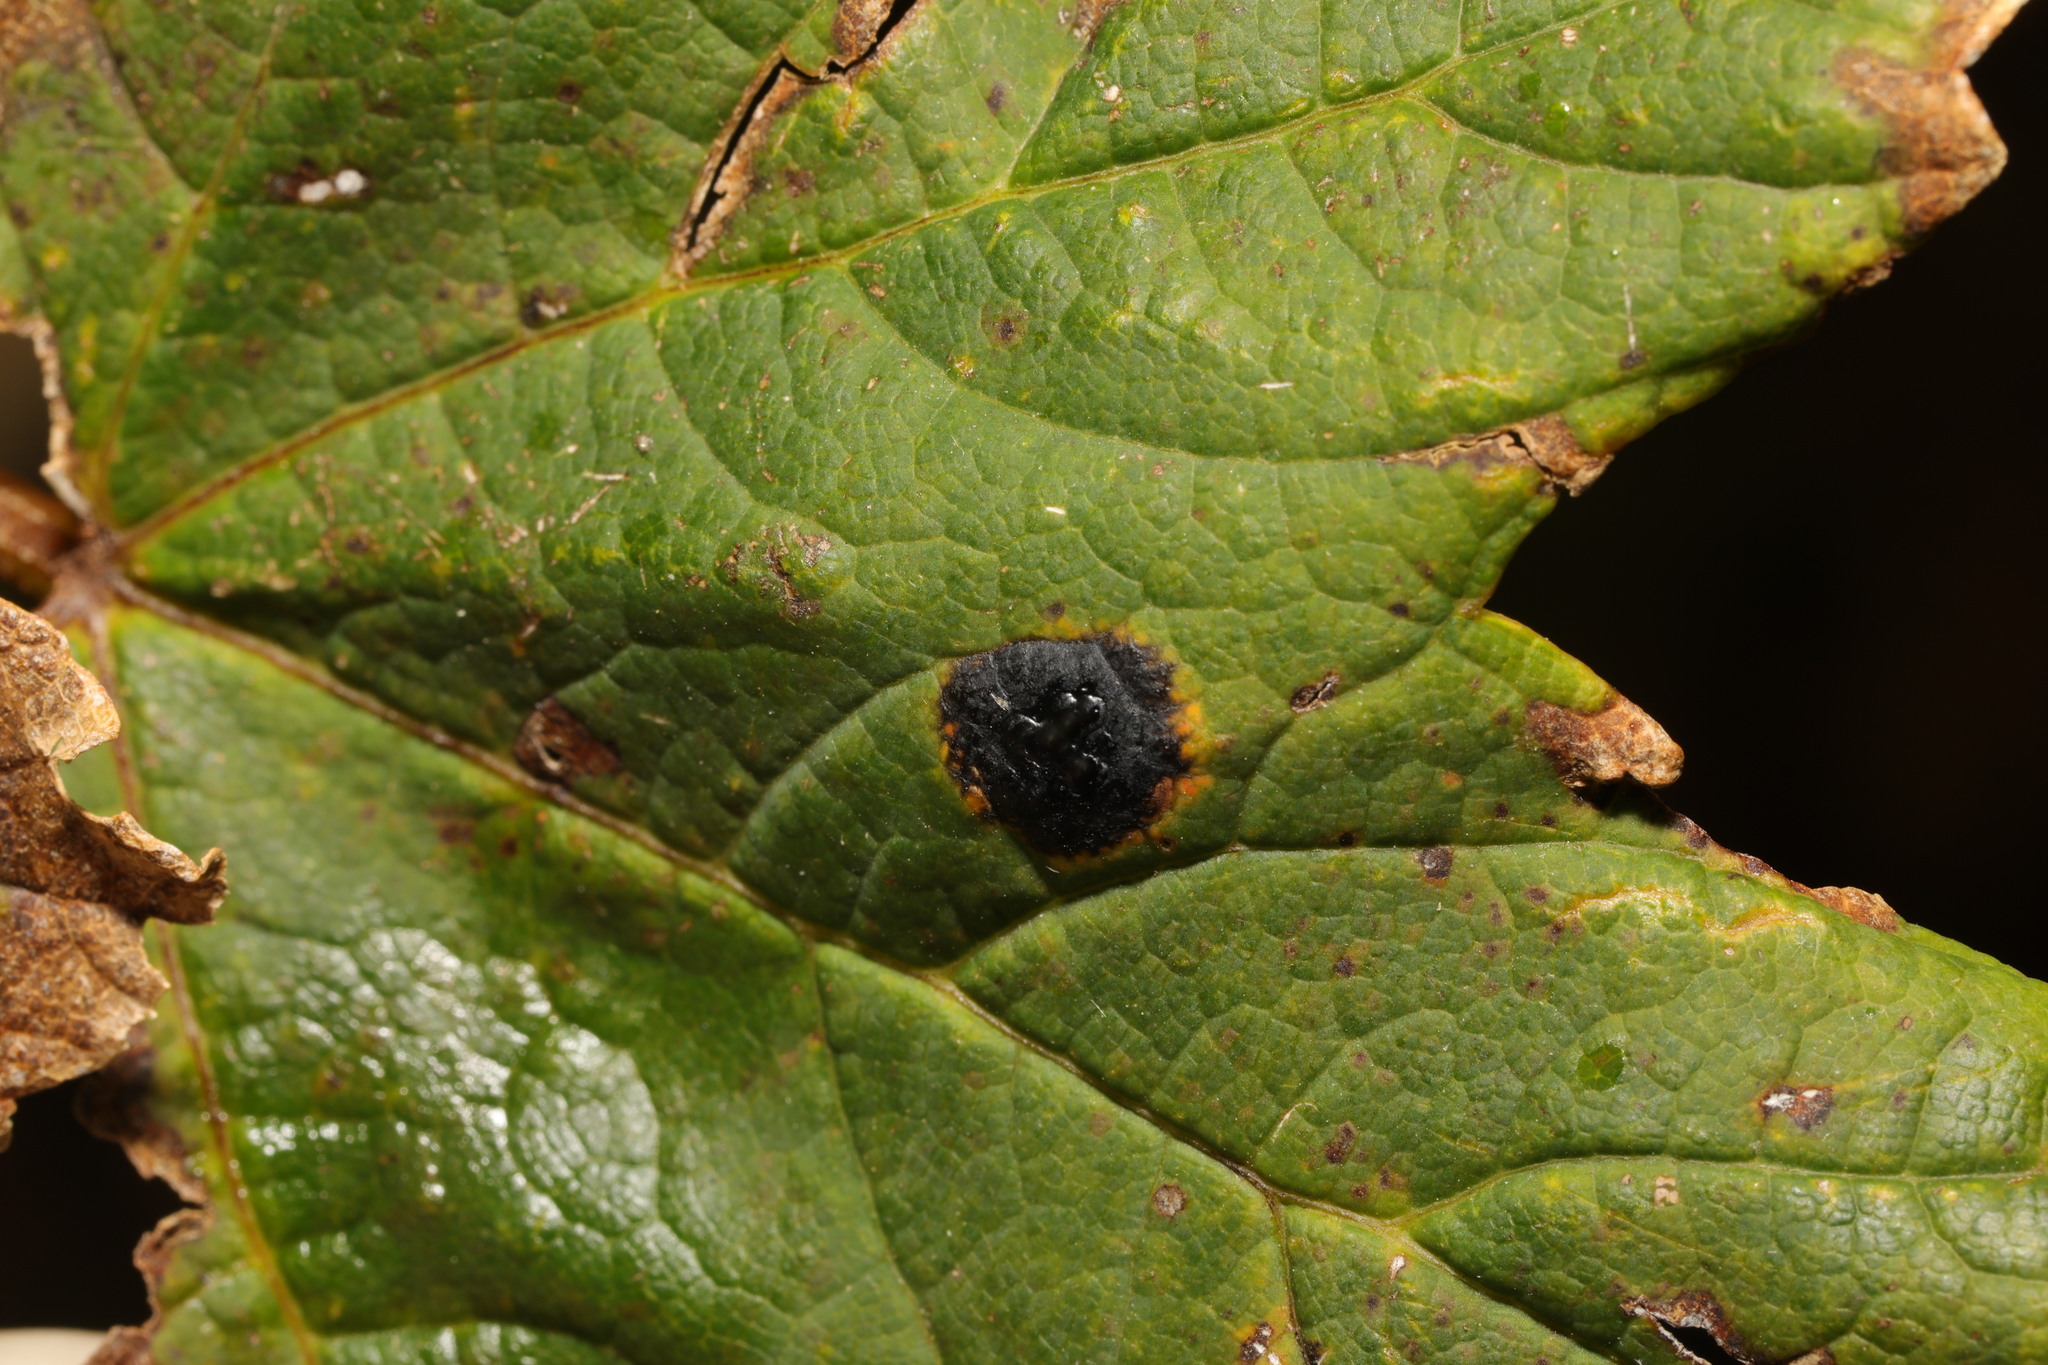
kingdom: Fungi
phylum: Ascomycota
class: Leotiomycetes
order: Rhytismatales
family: Rhytismataceae
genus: Rhytisma
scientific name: Rhytisma acerinum
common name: European tar spot
